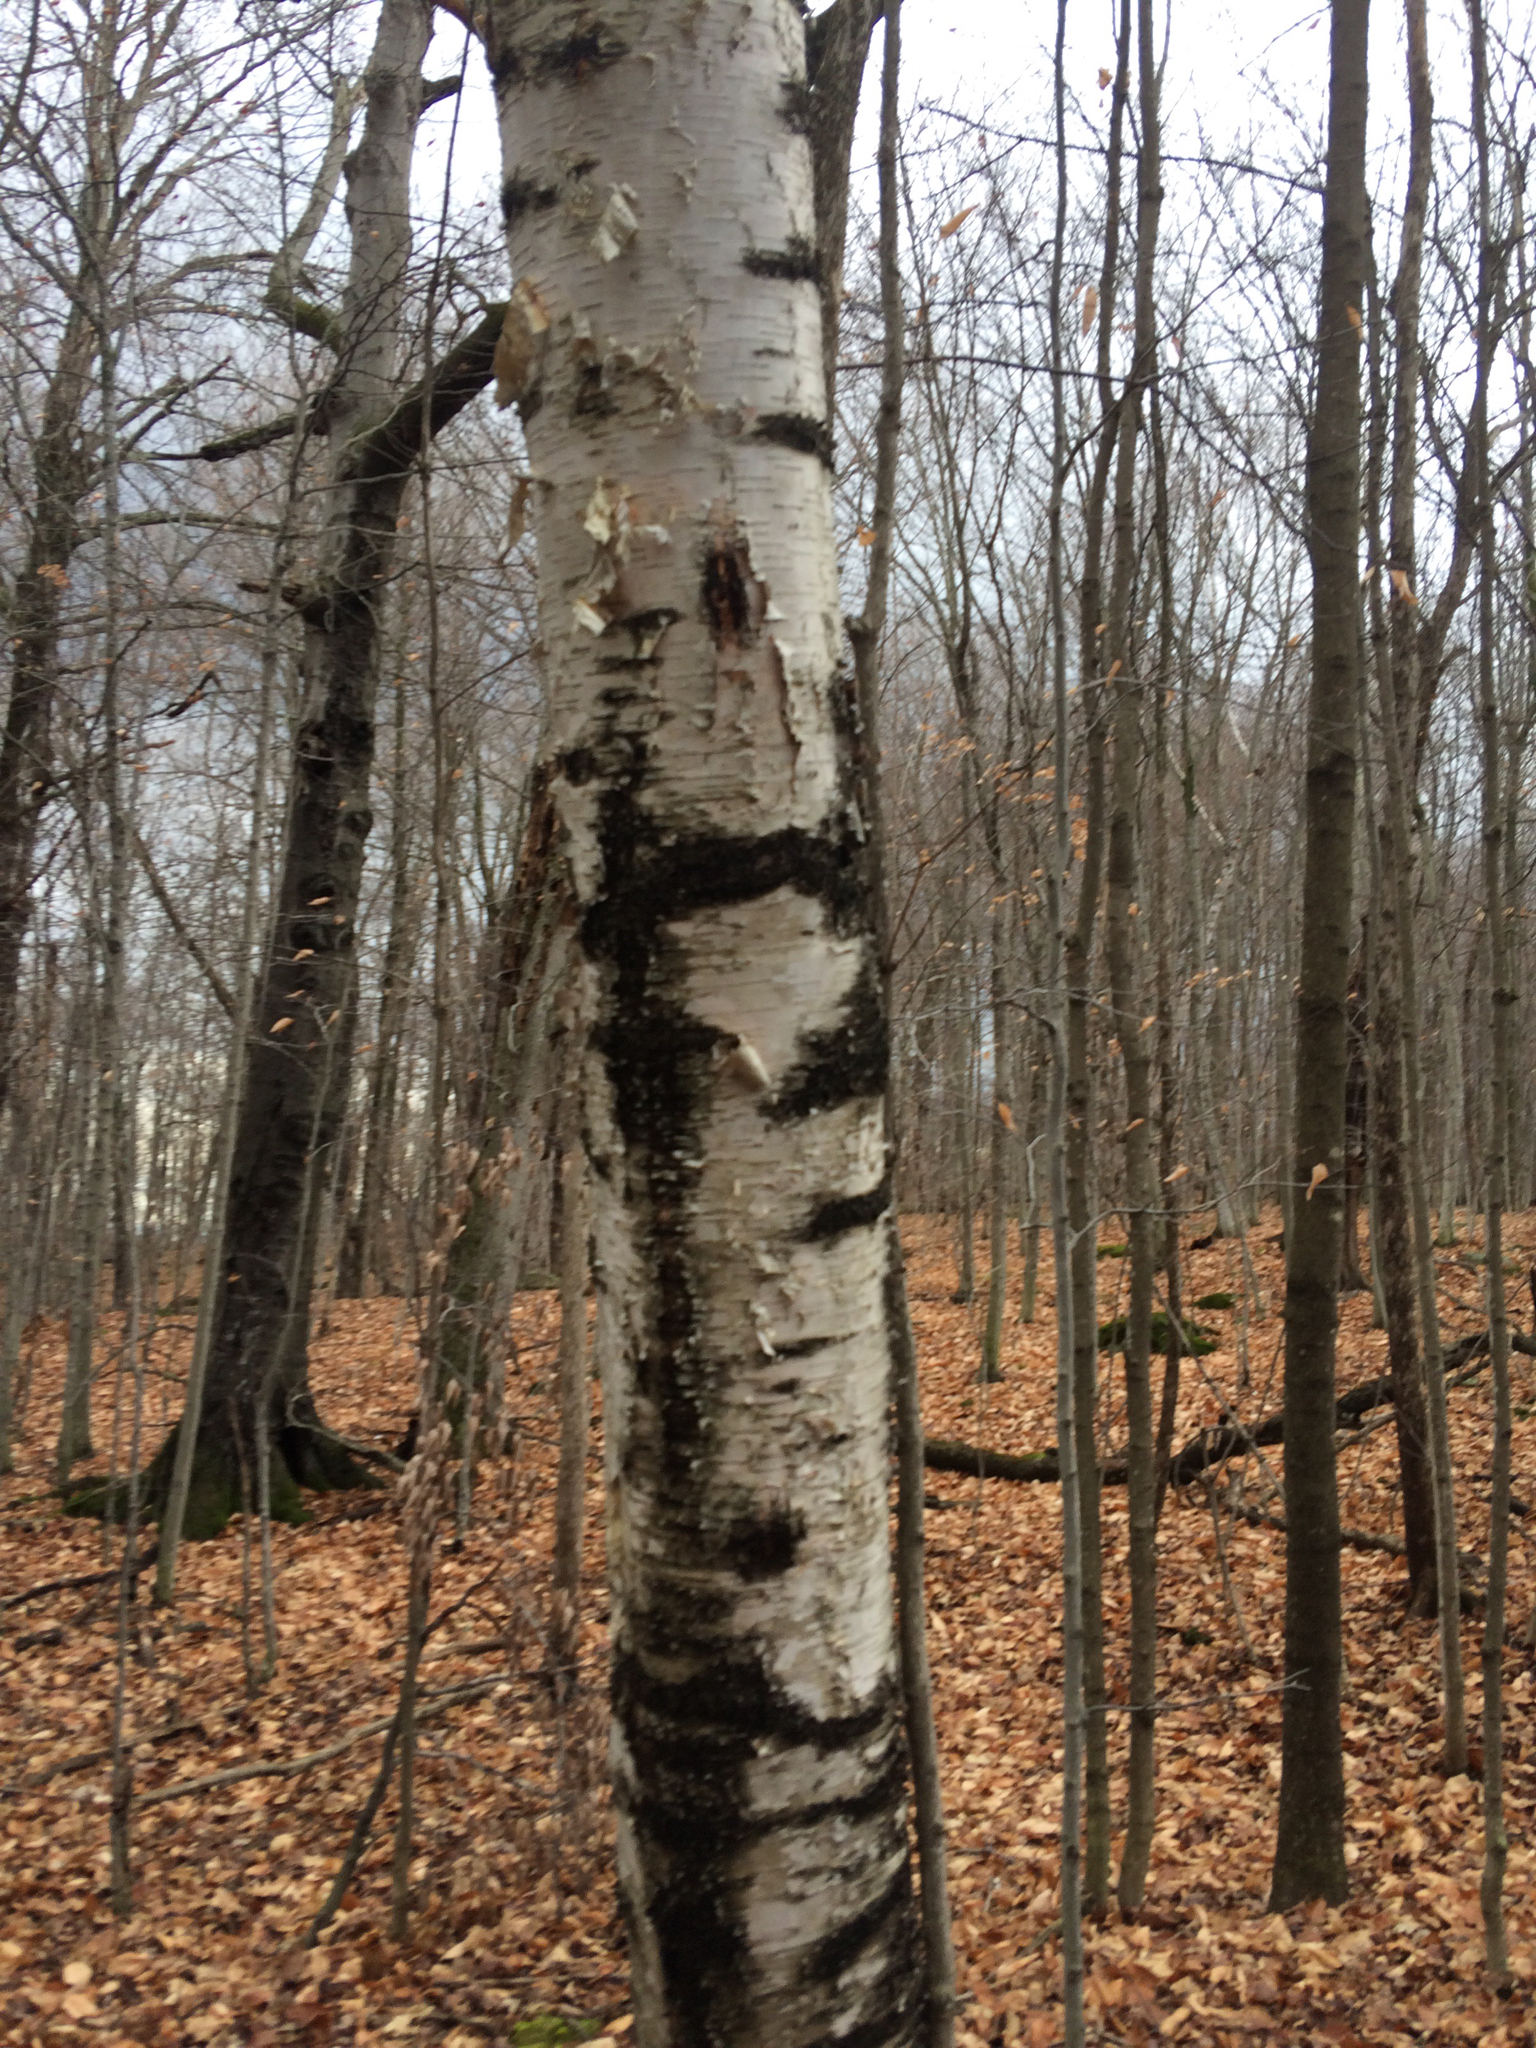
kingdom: Plantae
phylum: Tracheophyta
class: Magnoliopsida
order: Fagales
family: Betulaceae
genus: Betula
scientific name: Betula papyrifera
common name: Paper birch
